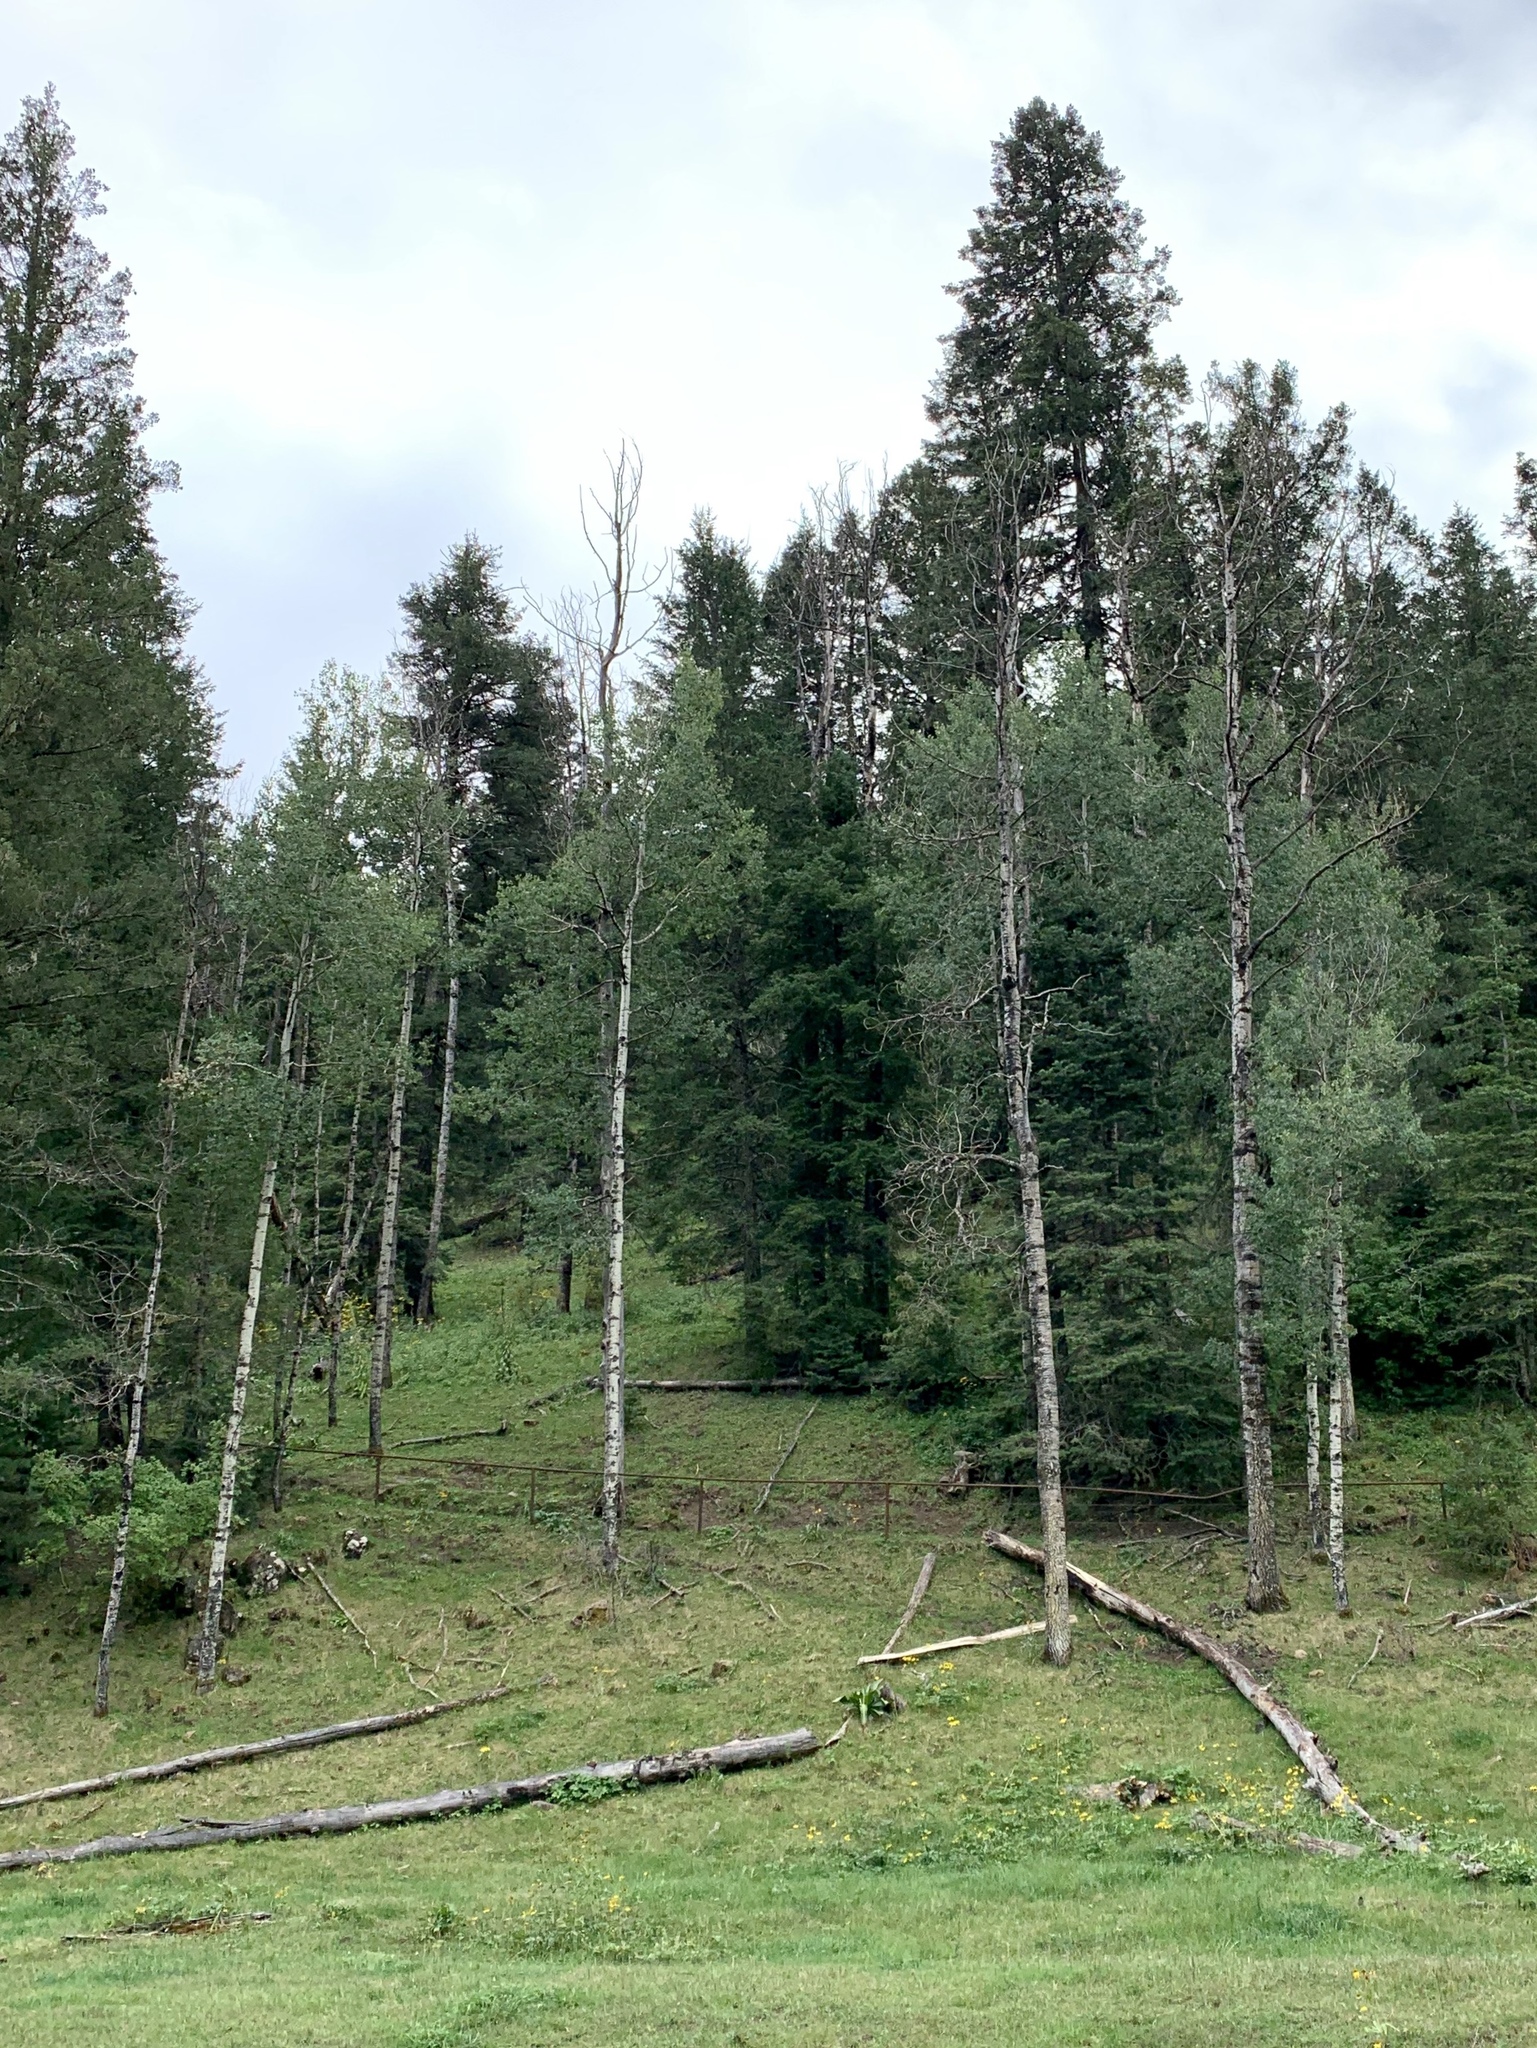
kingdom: Plantae
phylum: Tracheophyta
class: Magnoliopsida
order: Malpighiales
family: Salicaceae
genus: Populus
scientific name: Populus tremuloides
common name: Quaking aspen
